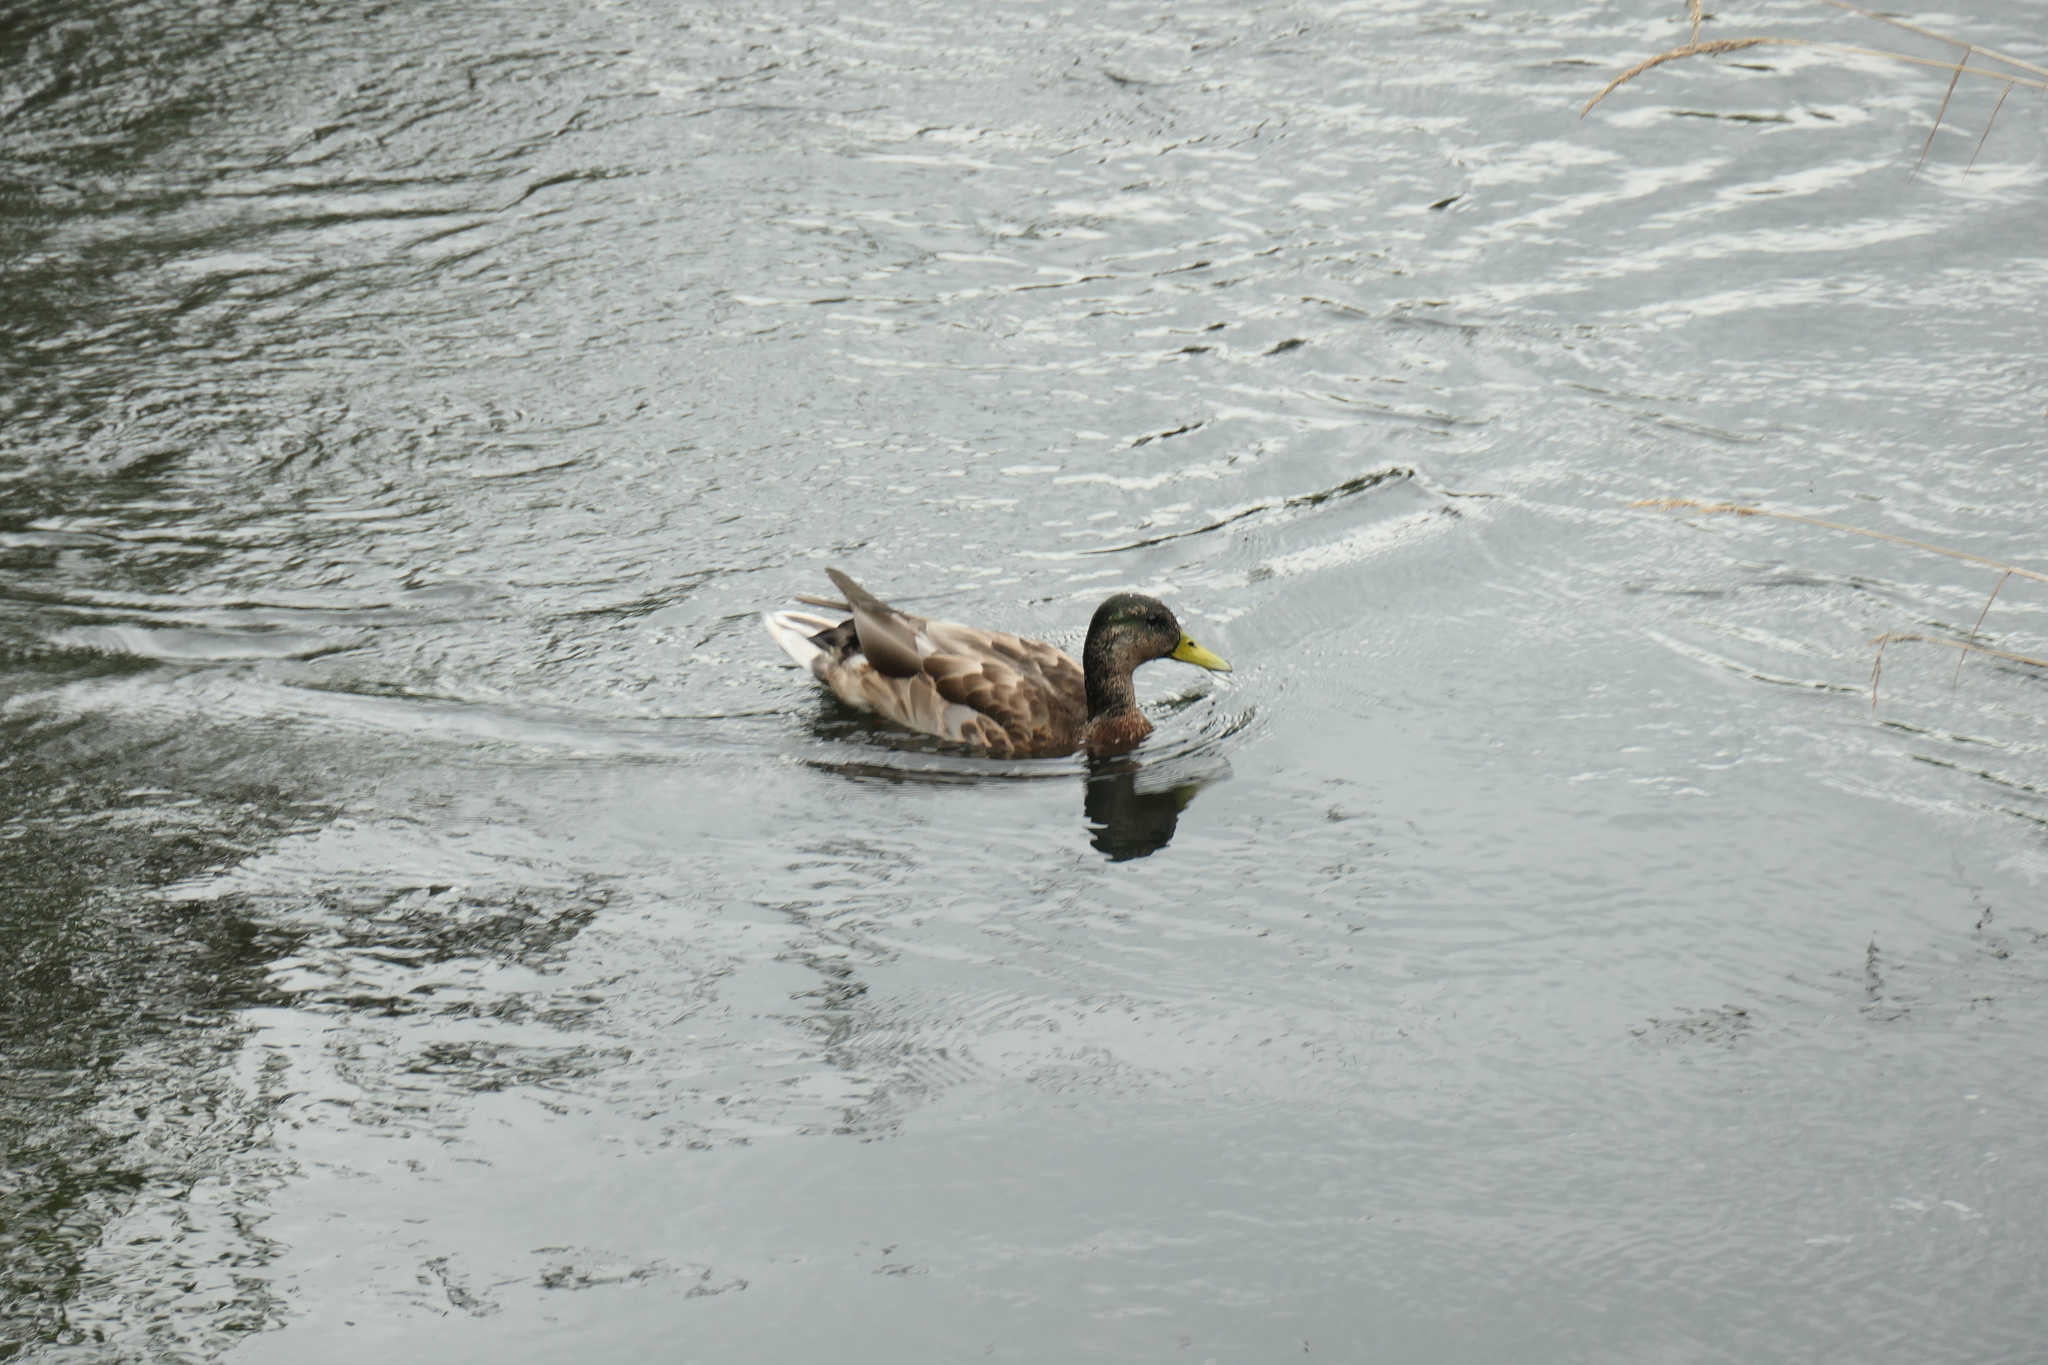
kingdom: Animalia
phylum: Chordata
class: Aves
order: Anseriformes
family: Anatidae
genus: Anas
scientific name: Anas platyrhynchos
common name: Mallard
